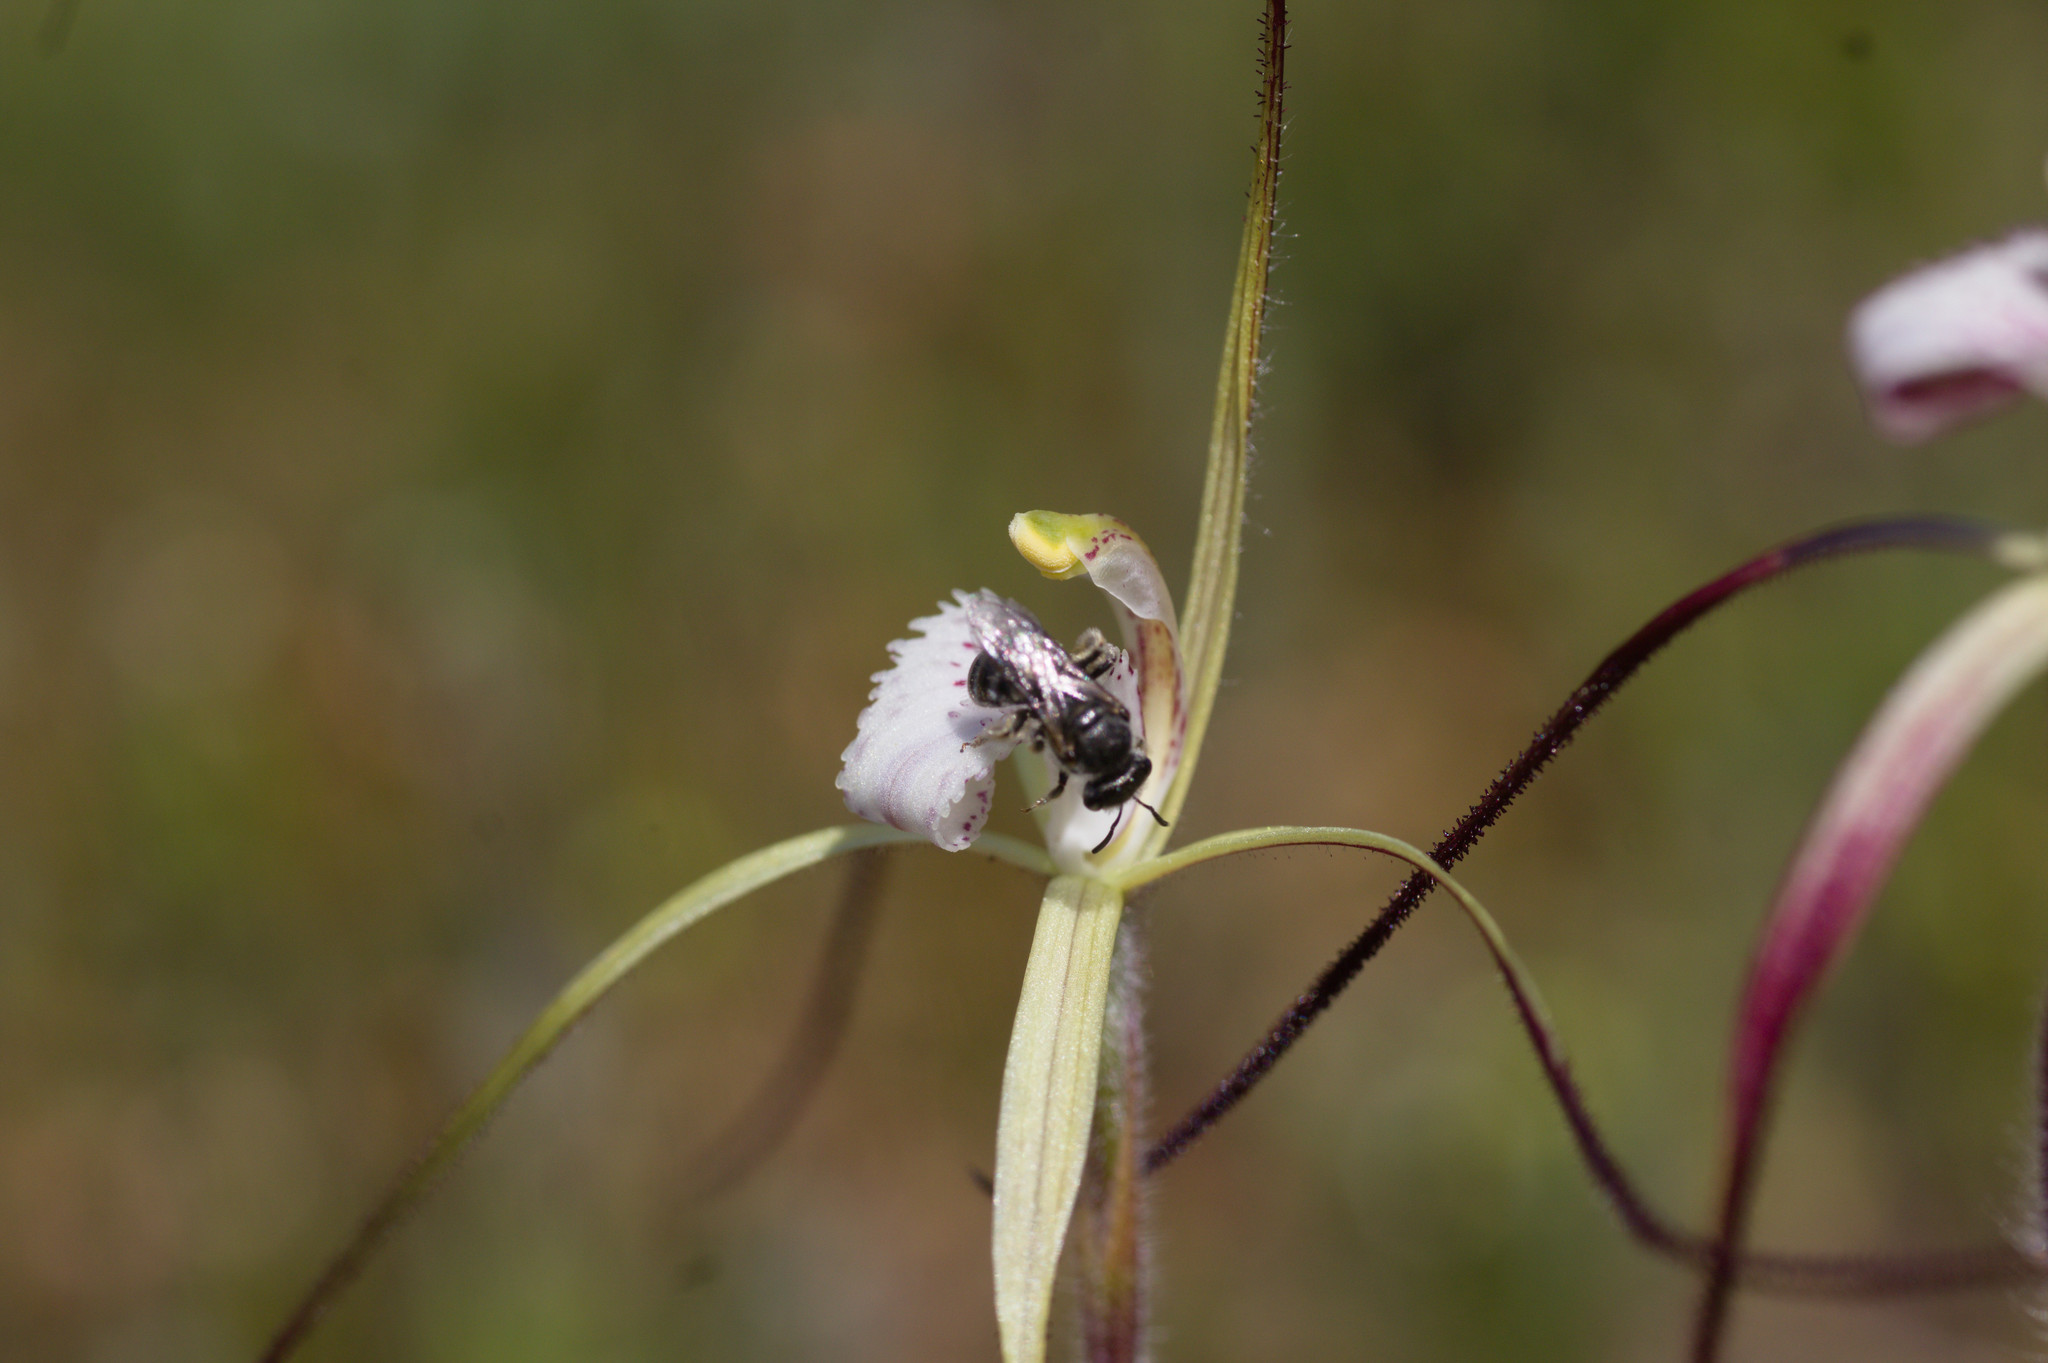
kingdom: Plantae
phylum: Tracheophyta
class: Liliopsida
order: Asparagales
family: Orchidaceae
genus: Caladenia
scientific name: Caladenia denticulata
